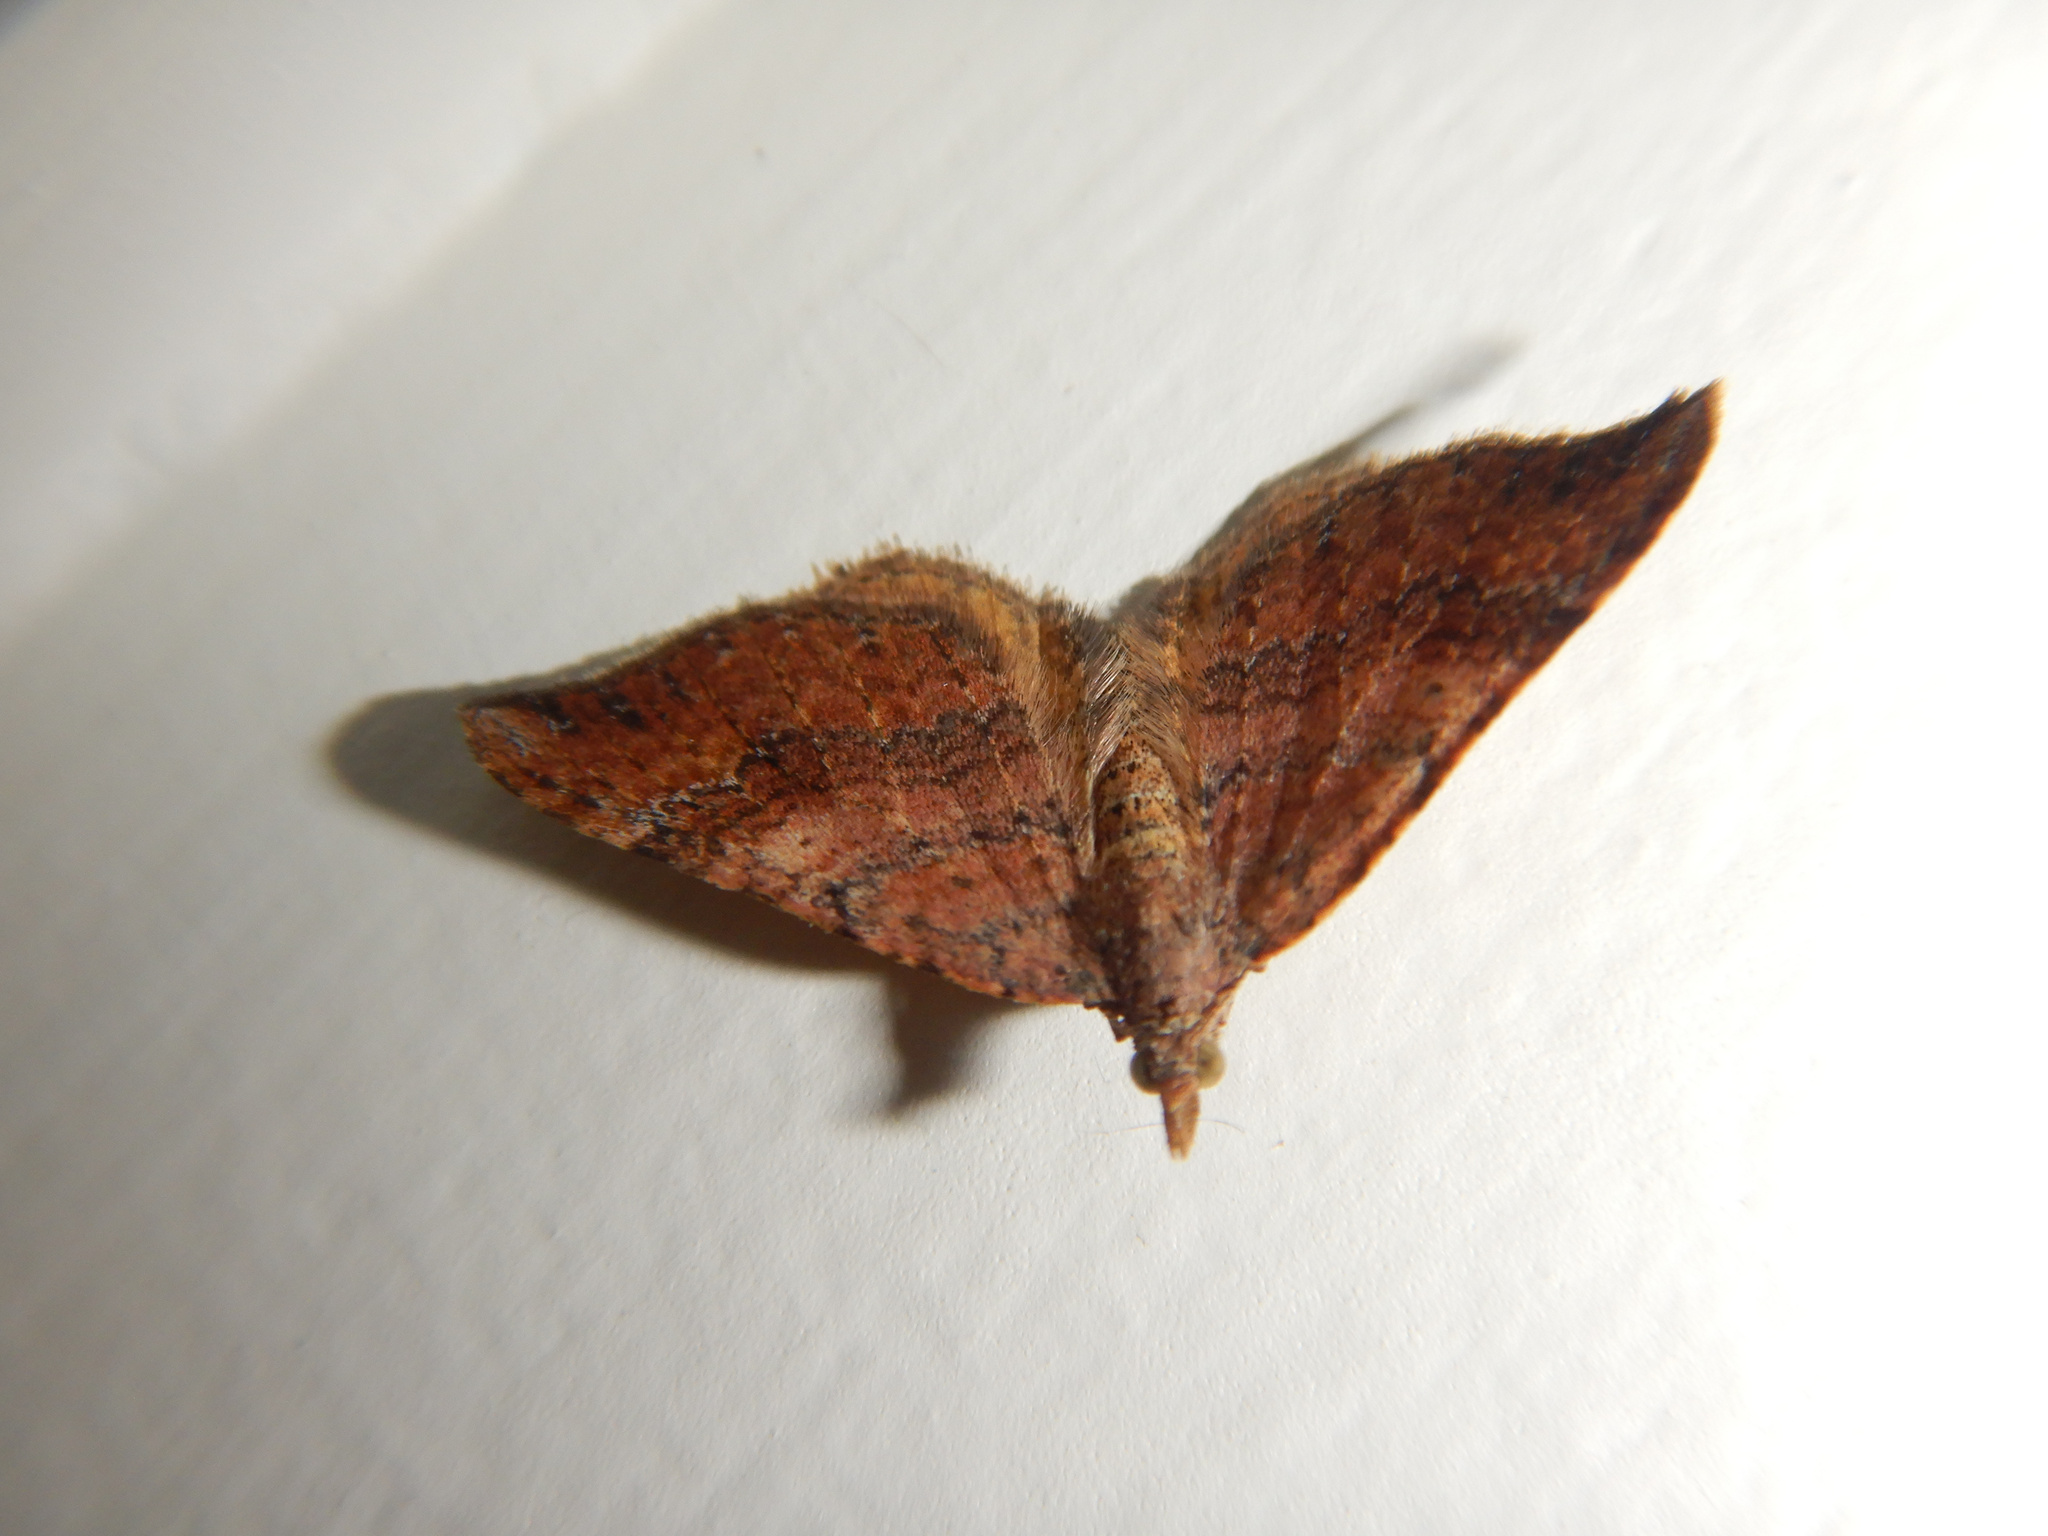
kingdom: Animalia
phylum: Arthropoda
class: Insecta
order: Lepidoptera
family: Geometridae
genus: Homodotis
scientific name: Homodotis megaspilata
